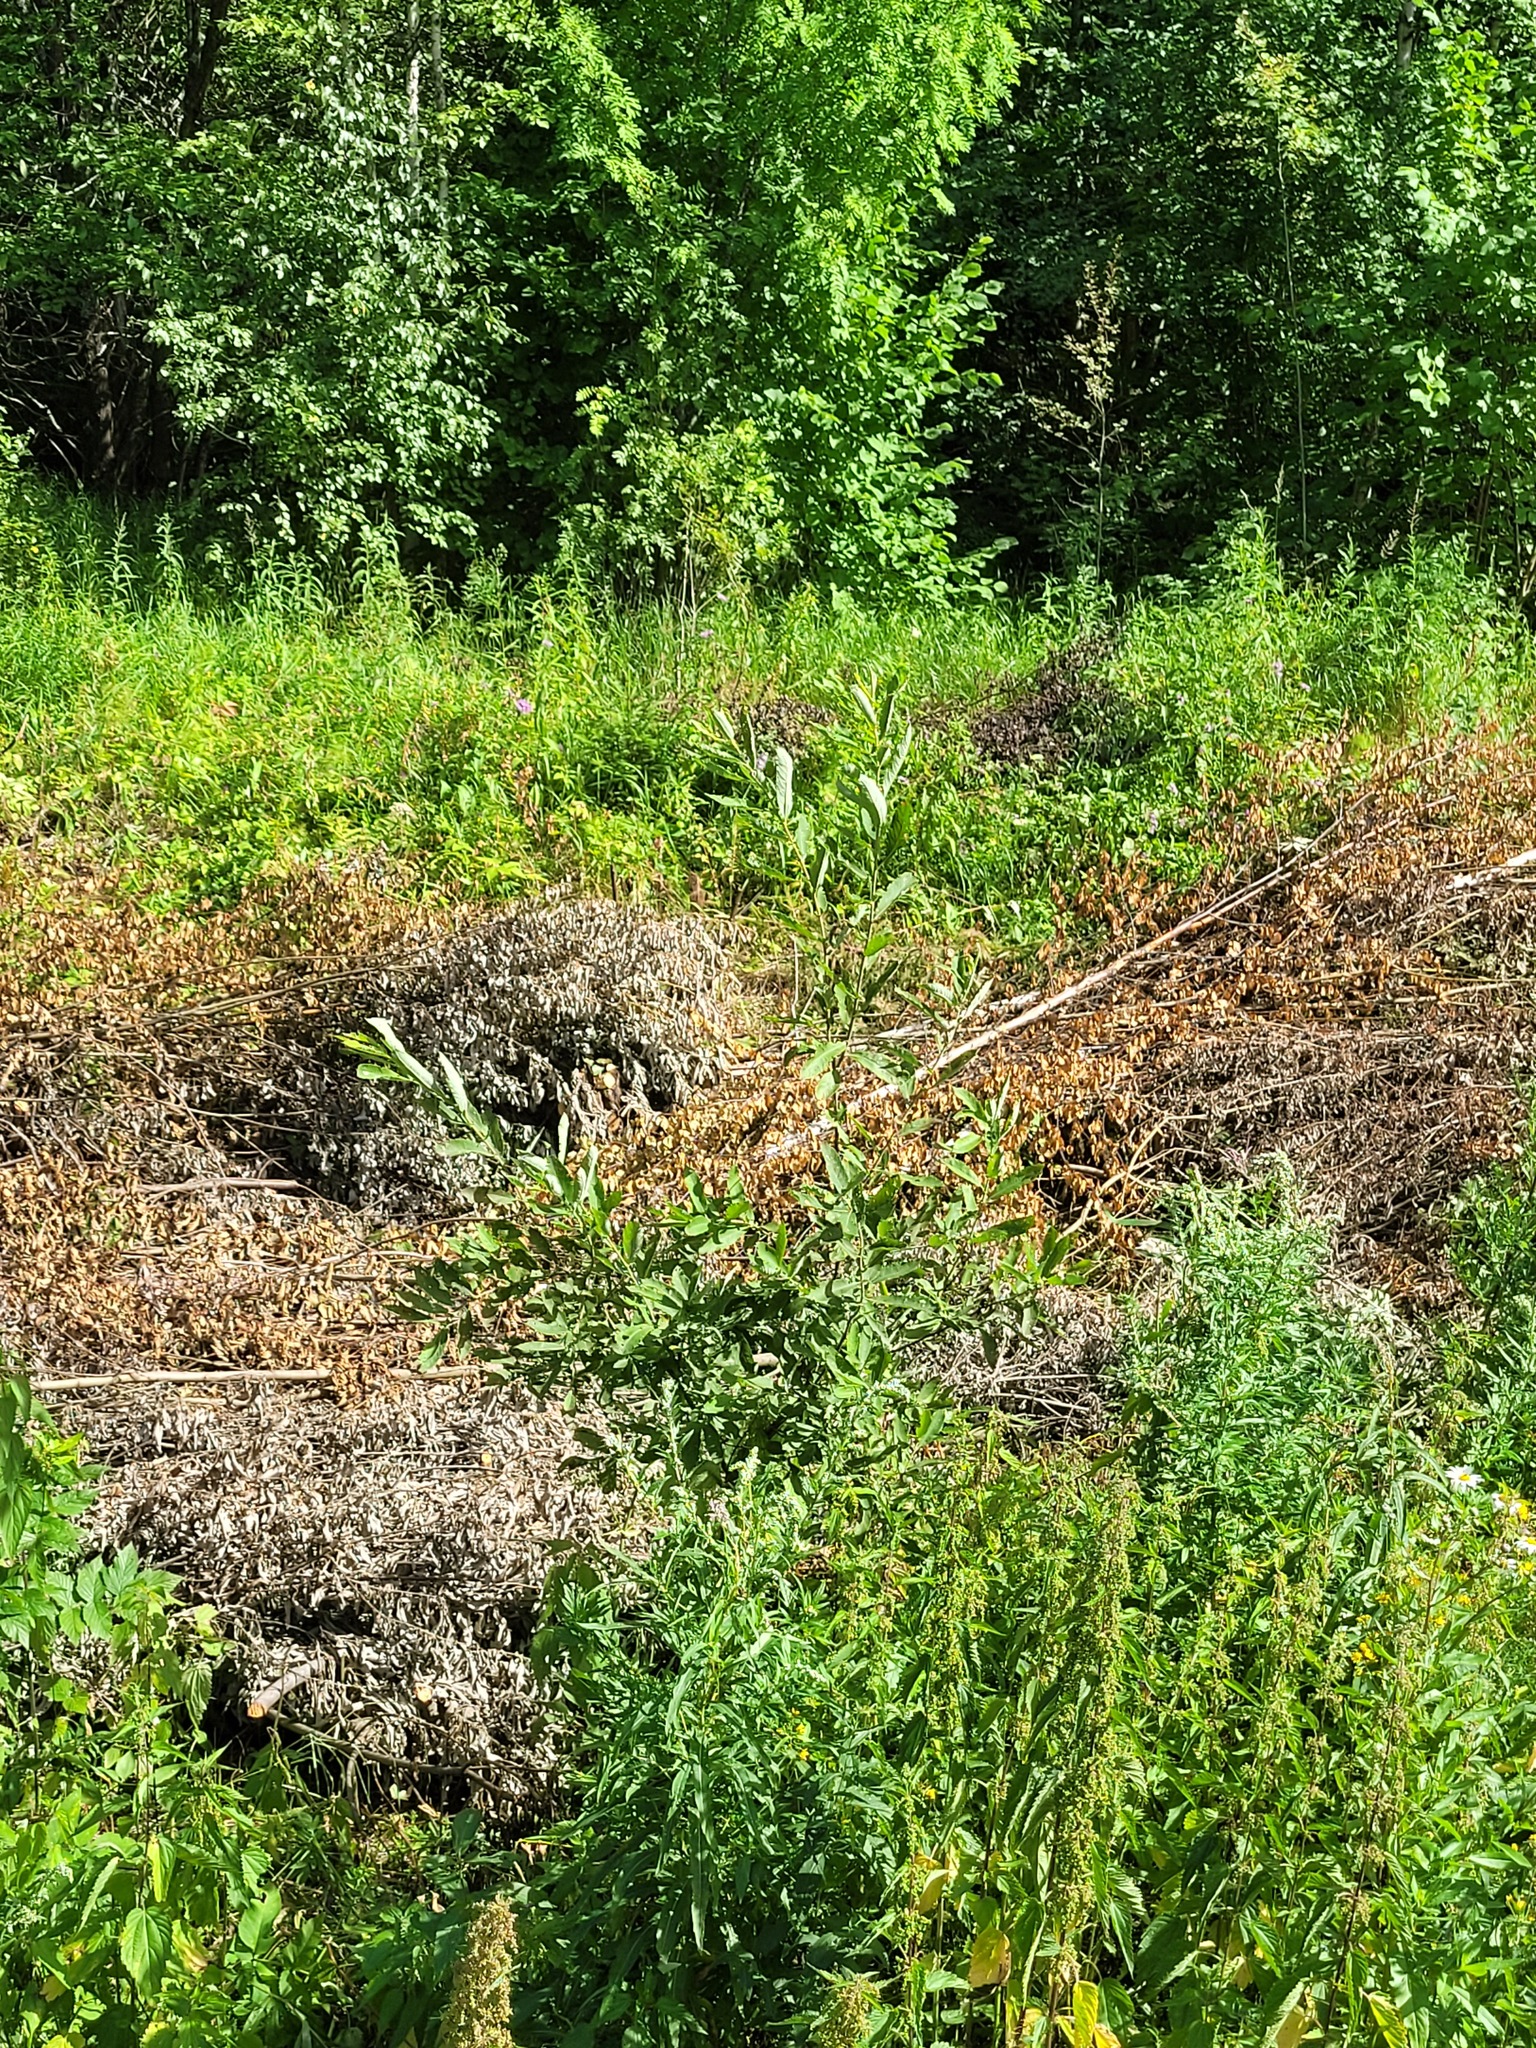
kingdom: Plantae
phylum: Tracheophyta
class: Magnoliopsida
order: Malpighiales
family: Salicaceae
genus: Salix
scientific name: Salix cinerea
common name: Common sallow
